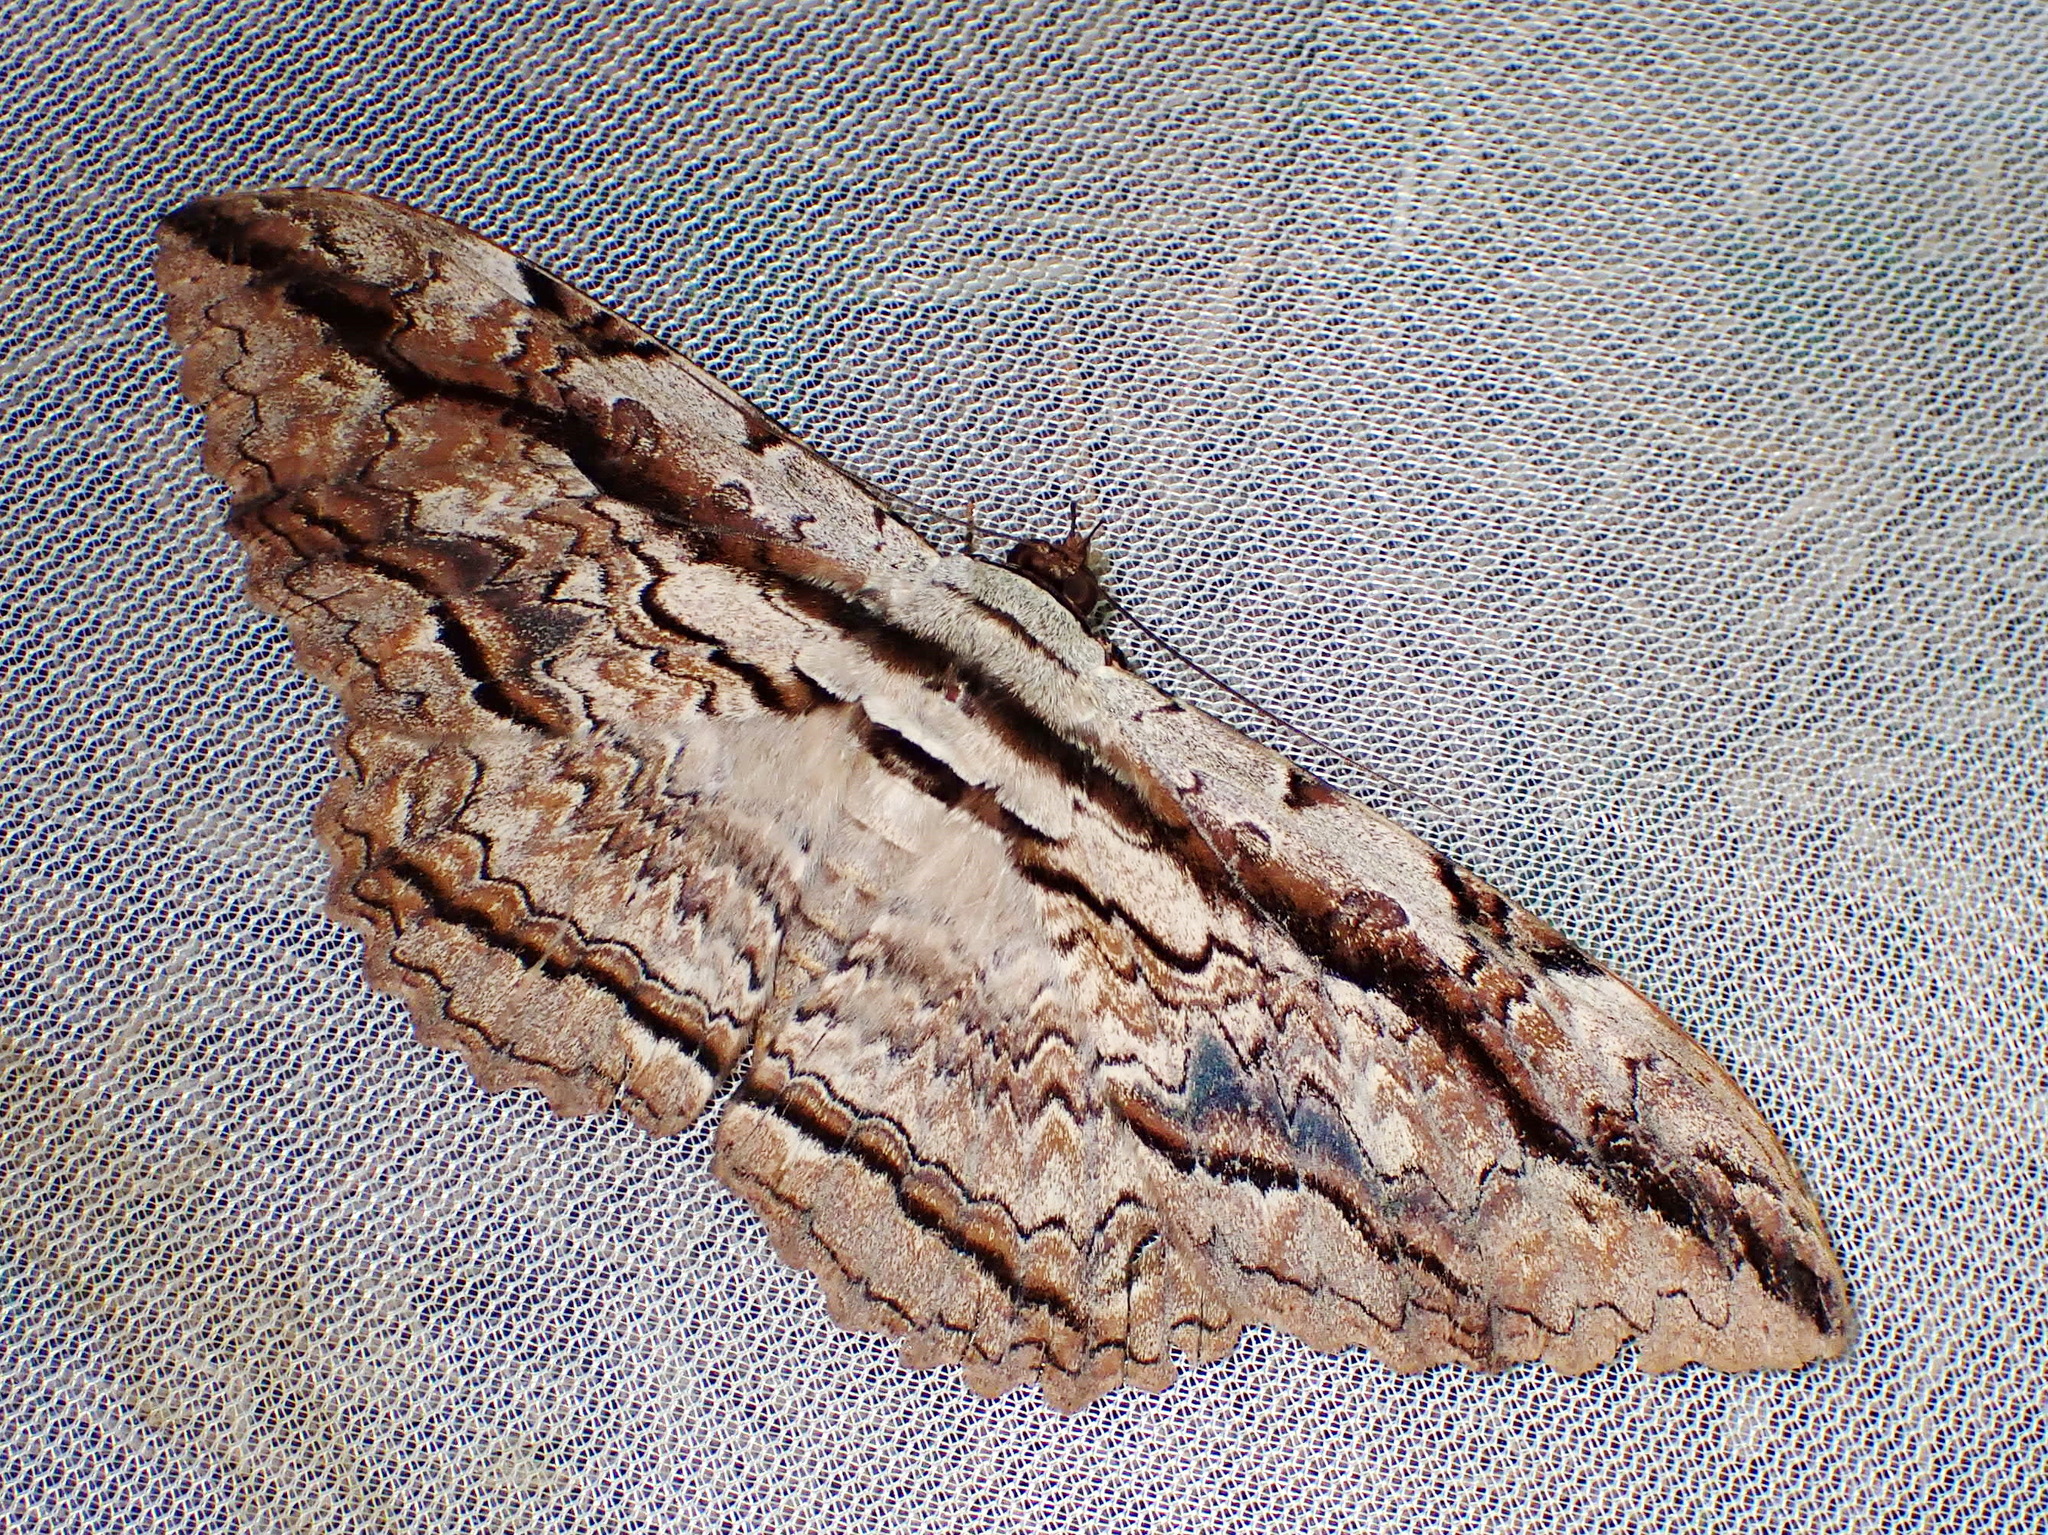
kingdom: Animalia
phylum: Arthropoda
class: Insecta
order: Lepidoptera
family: Erebidae
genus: Thysania
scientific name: Thysania zenobia
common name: Owl moth
